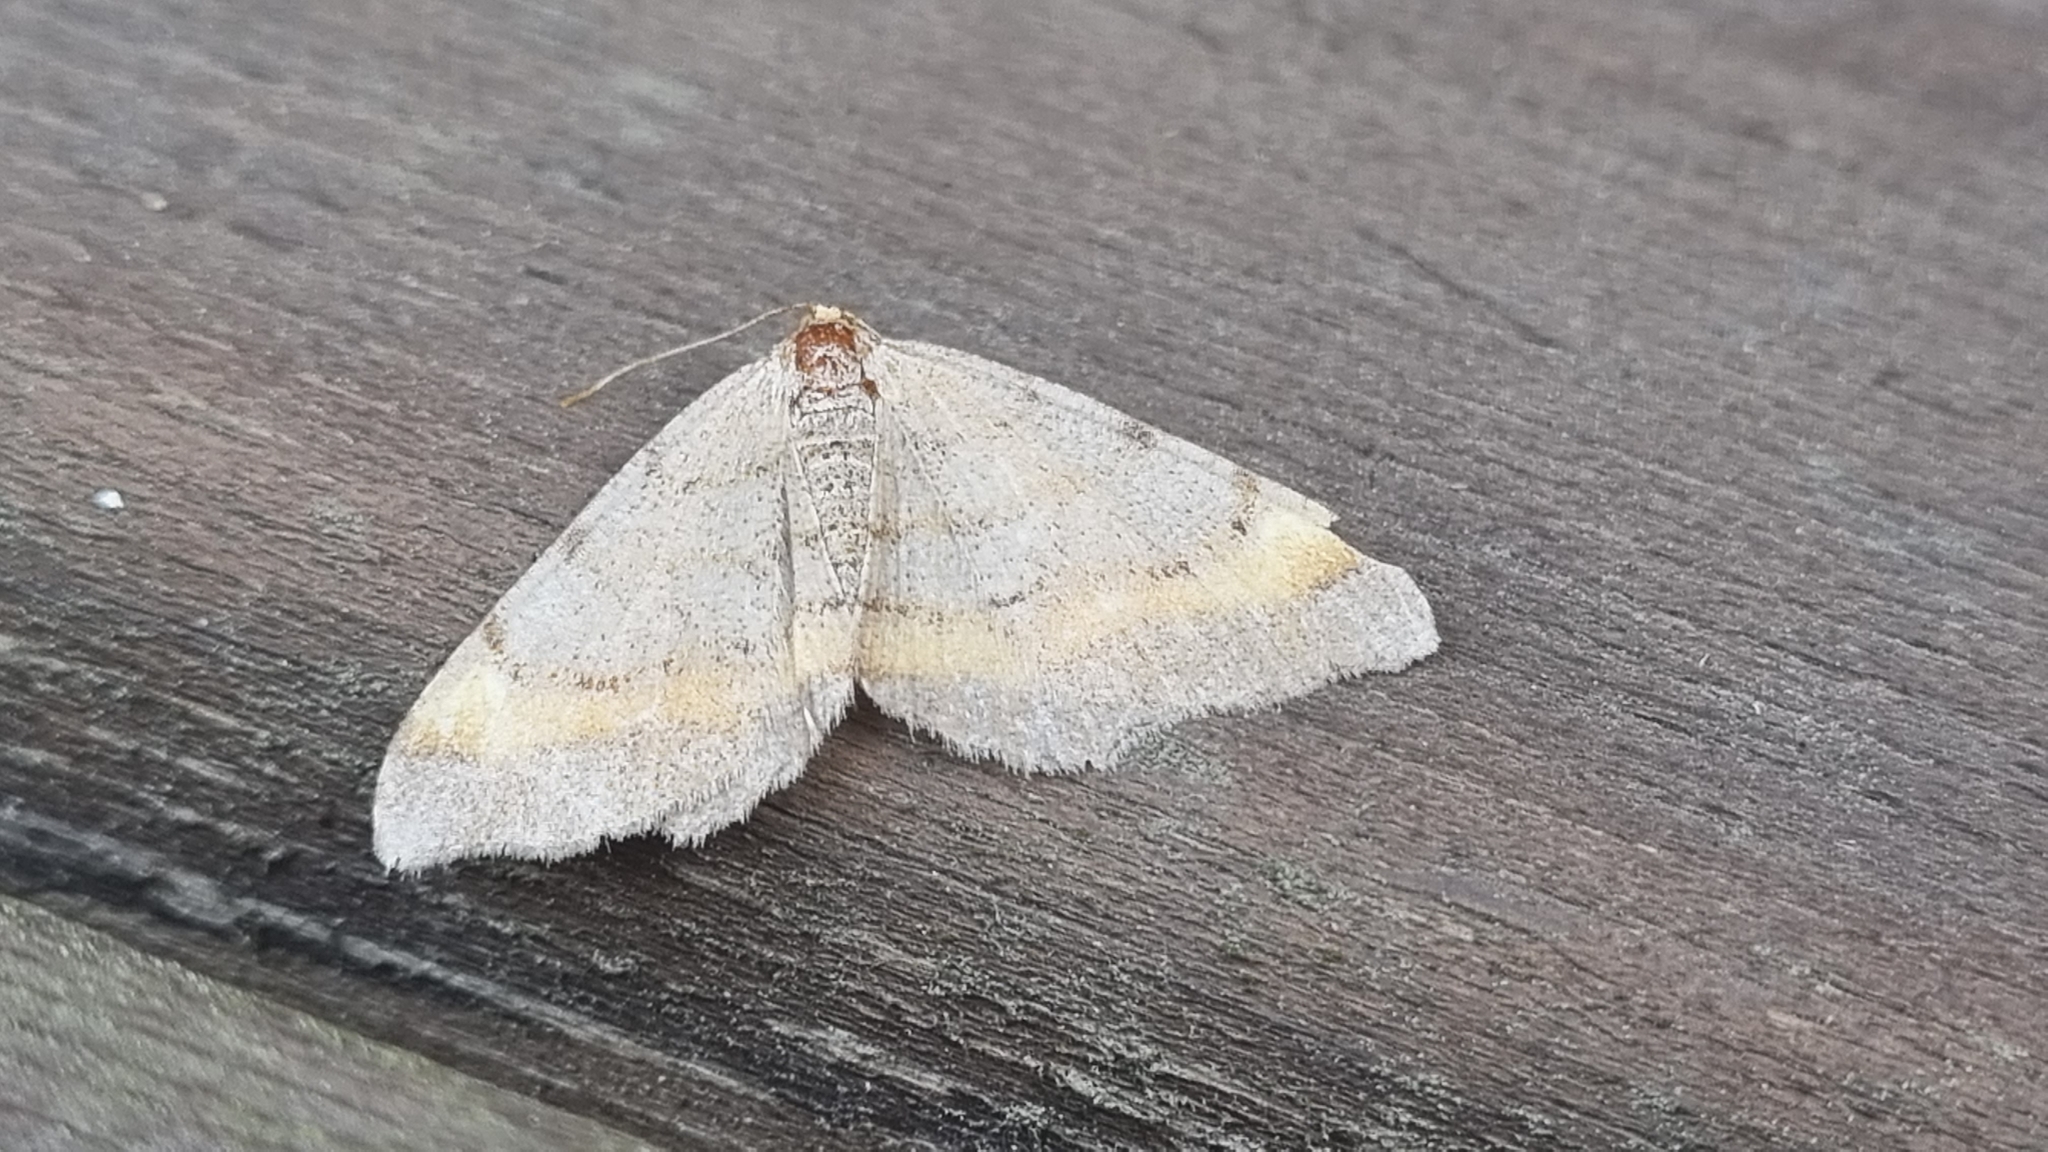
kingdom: Animalia
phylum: Arthropoda
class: Insecta
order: Lepidoptera
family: Geometridae
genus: Macaria
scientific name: Macaria liturata
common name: Tawny-barred angle
